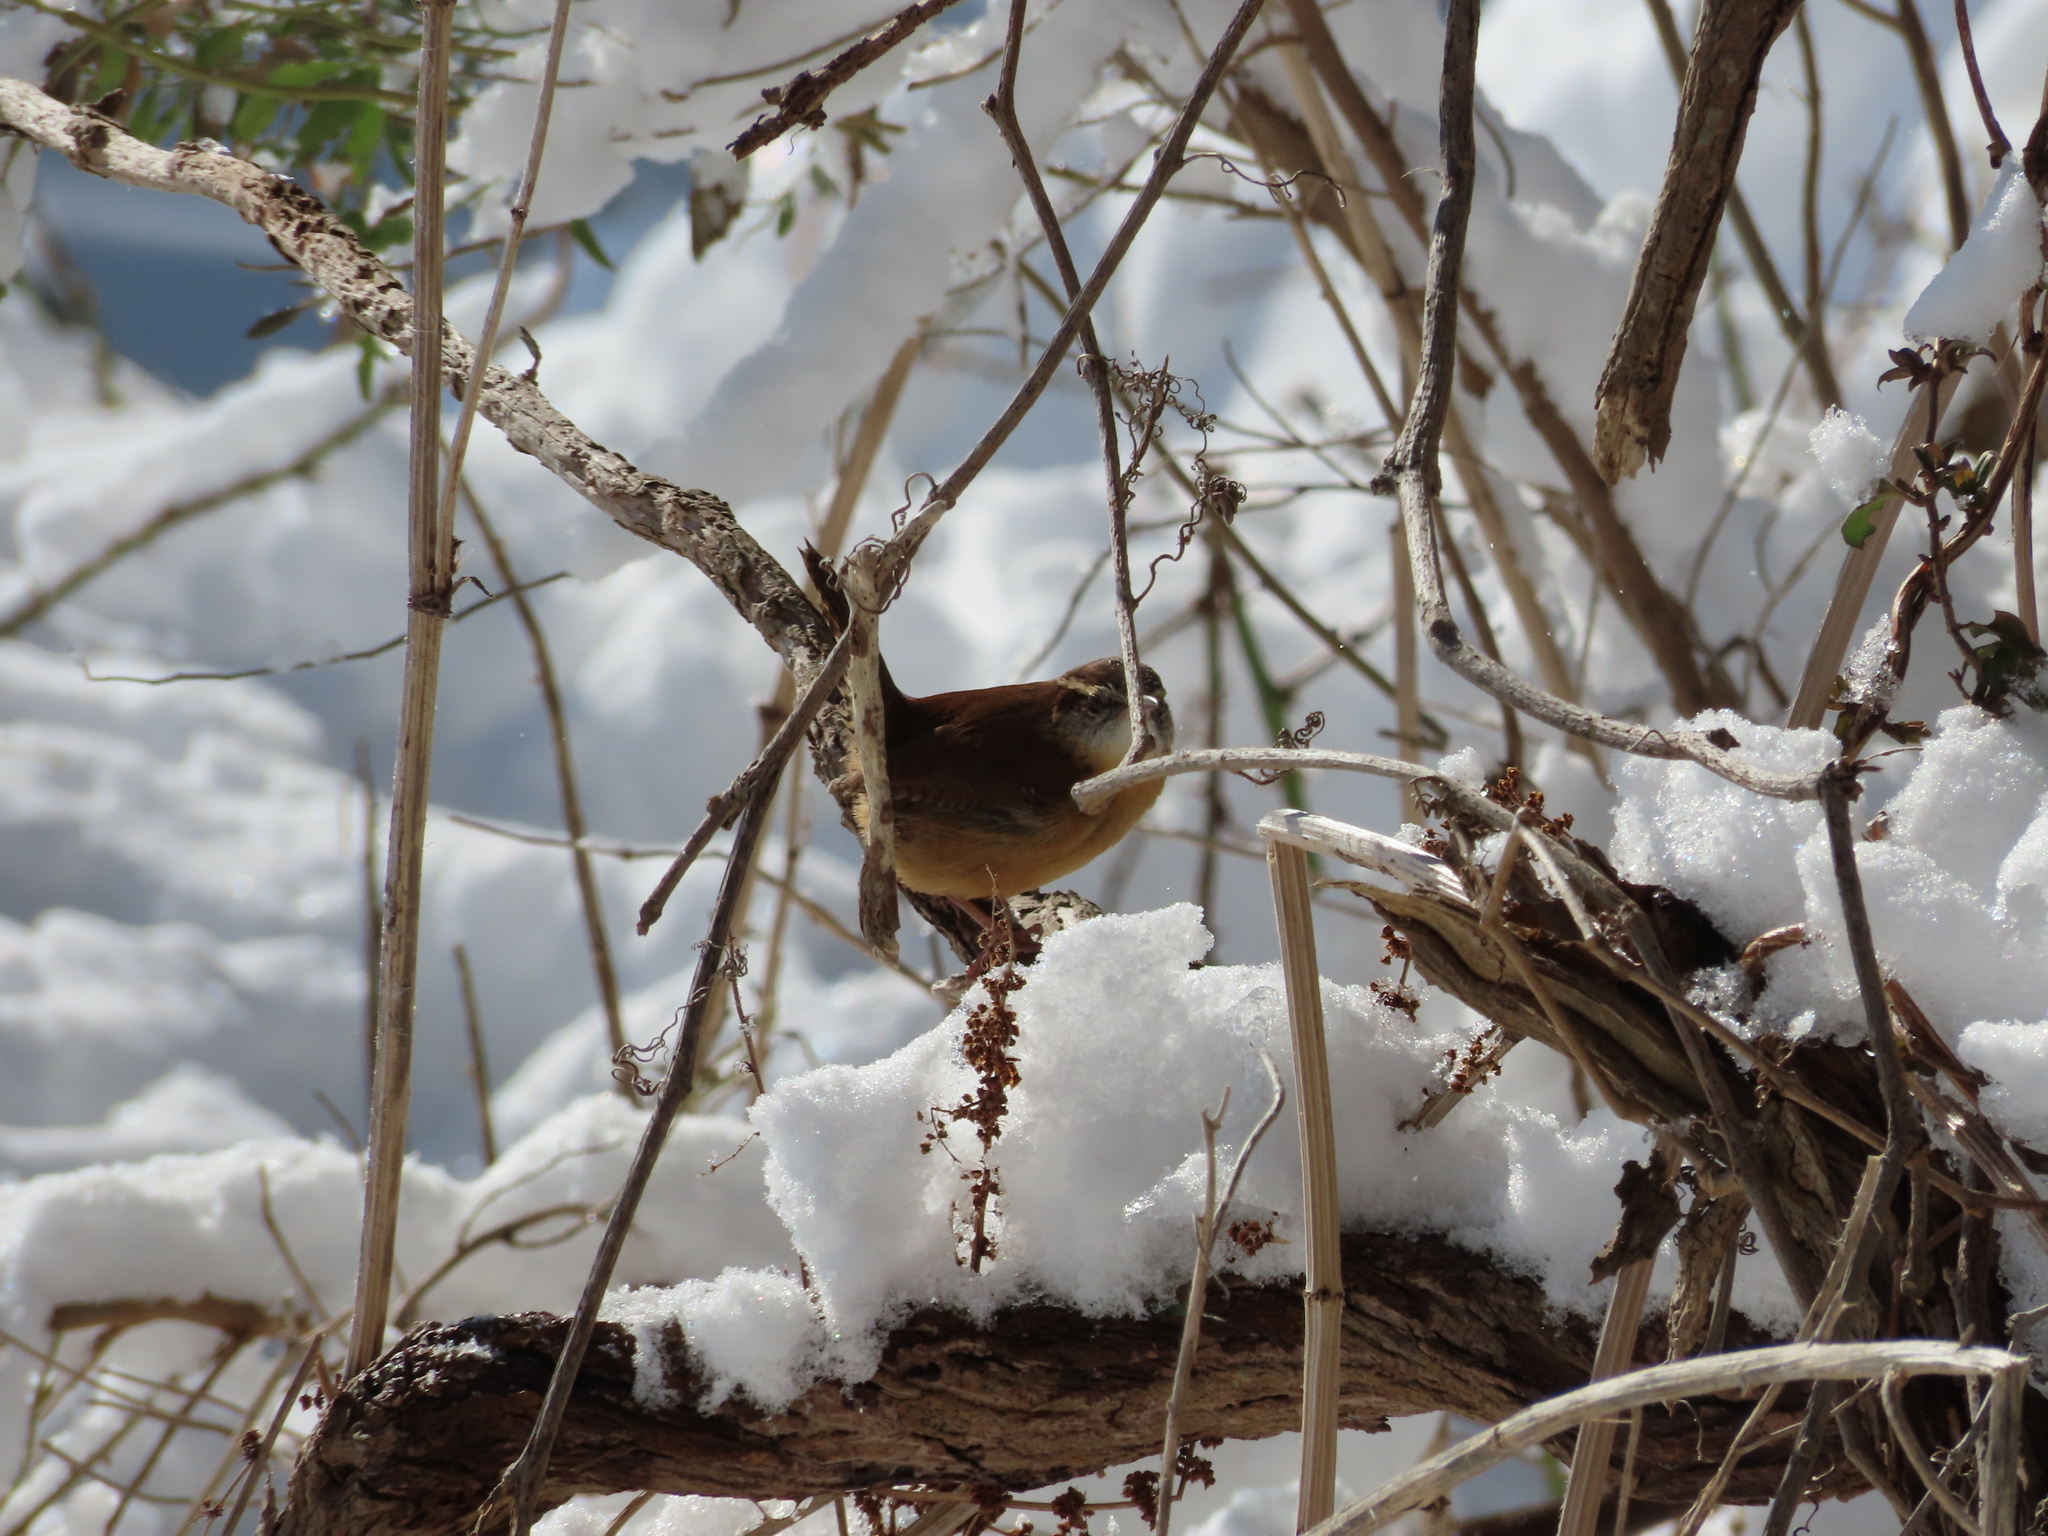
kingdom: Animalia
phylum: Chordata
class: Aves
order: Passeriformes
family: Troglodytidae
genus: Thryothorus
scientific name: Thryothorus ludovicianus
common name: Carolina wren
